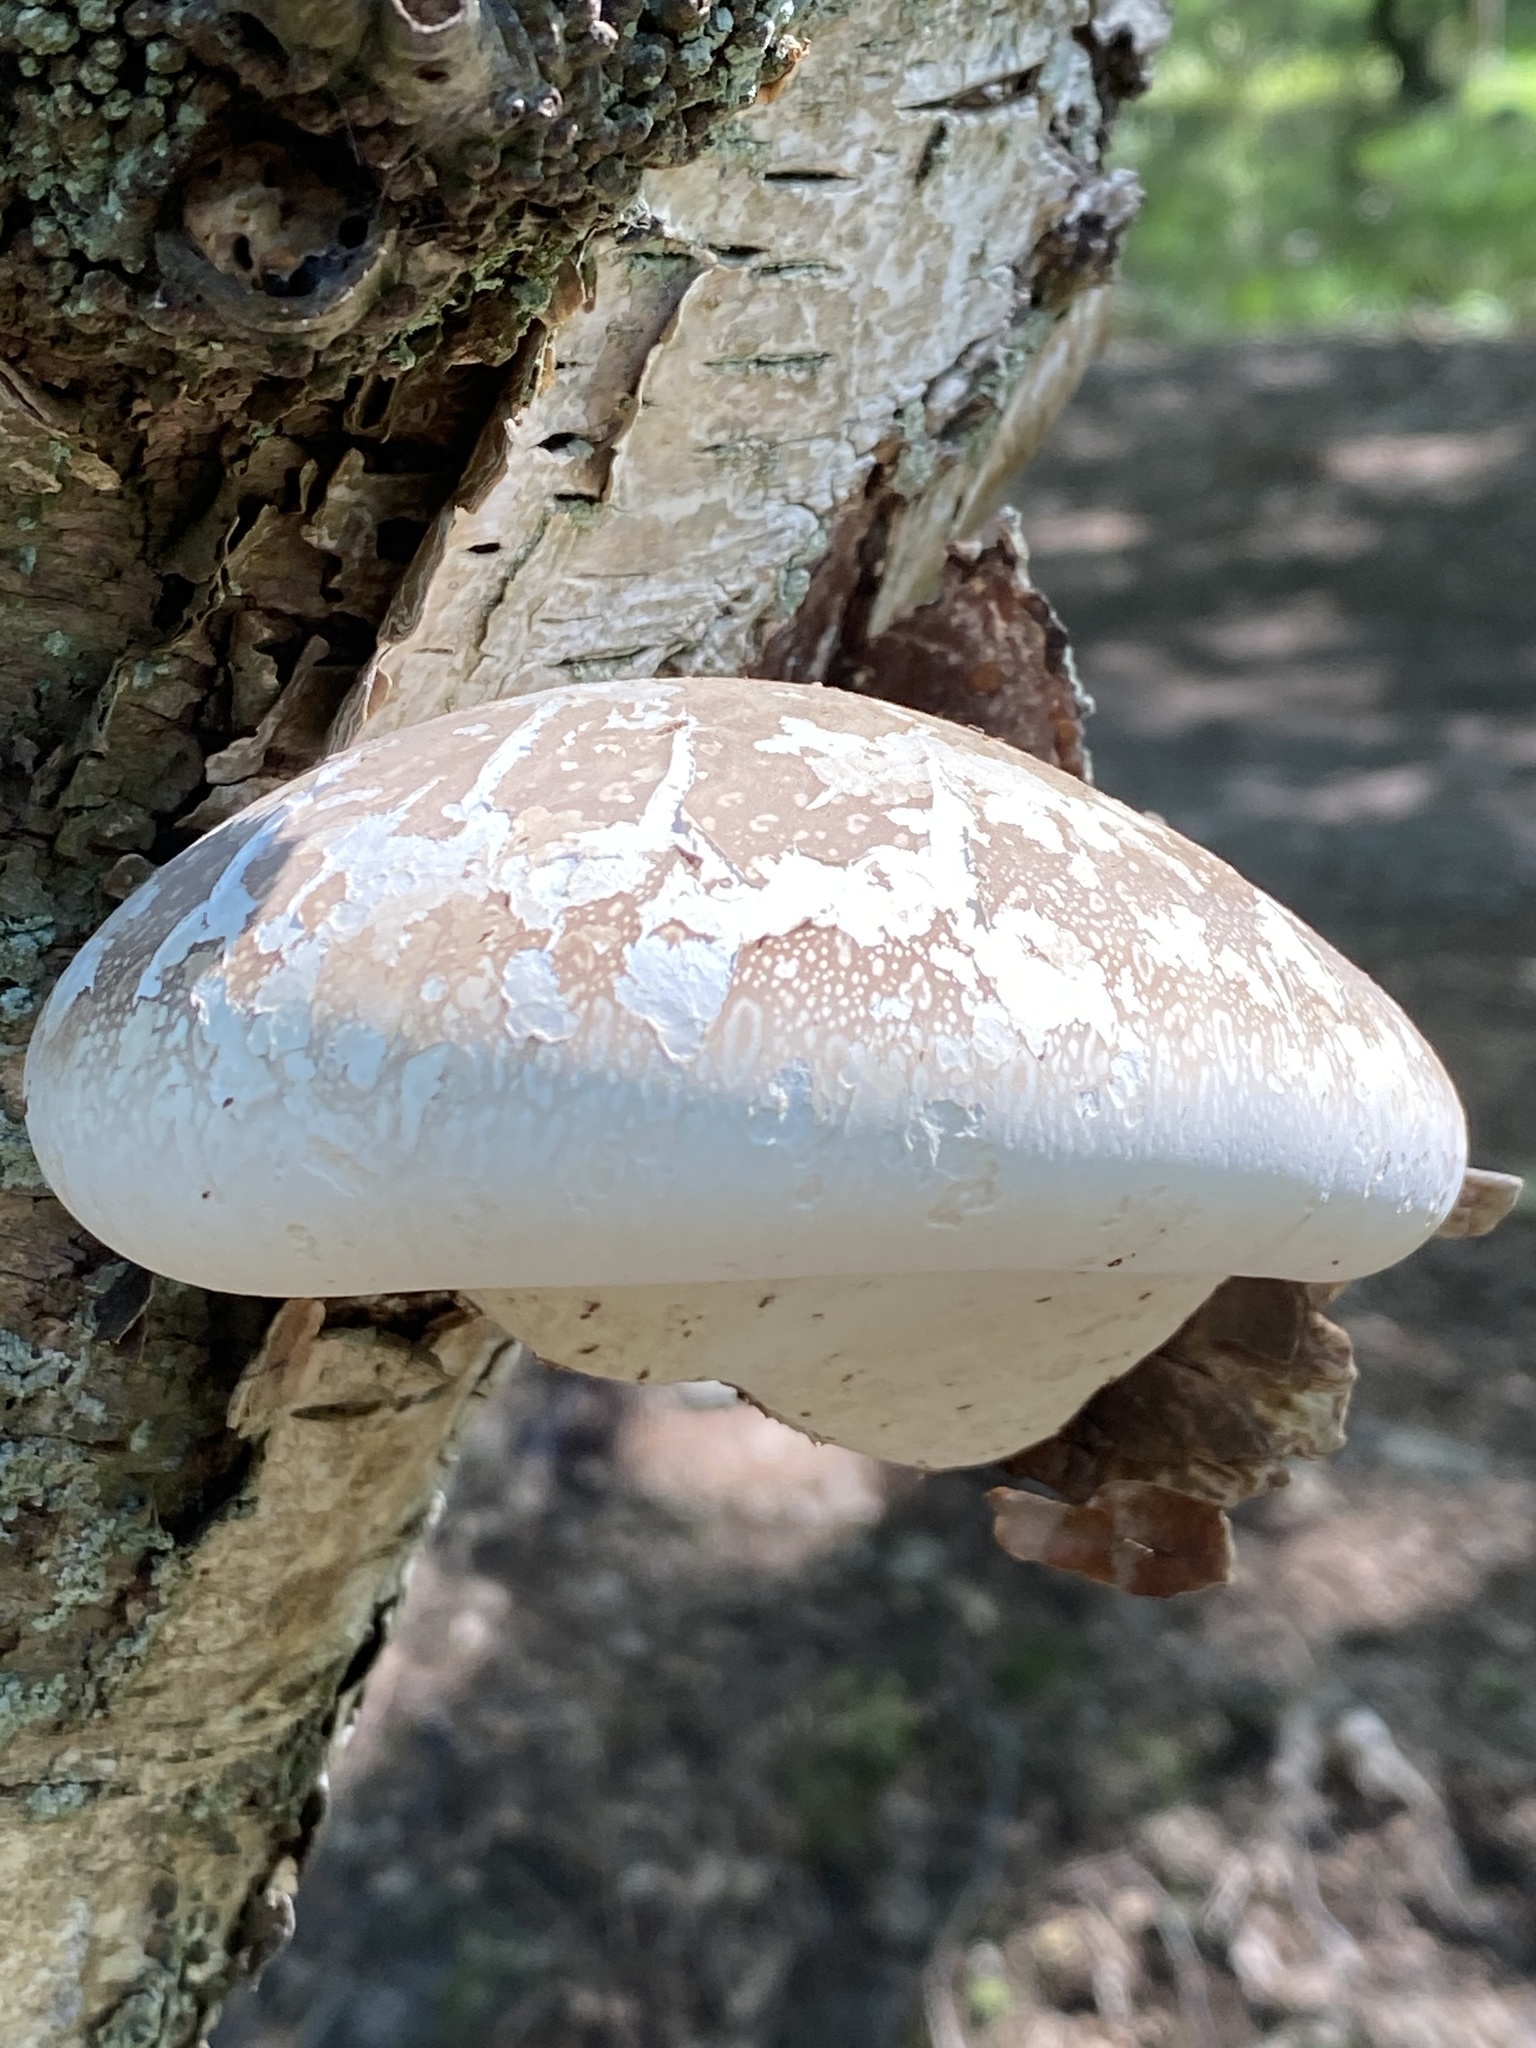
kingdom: Fungi
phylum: Basidiomycota
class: Agaricomycetes
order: Polyporales
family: Fomitopsidaceae
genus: Fomitopsis
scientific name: Fomitopsis betulina
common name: Birch polypore
